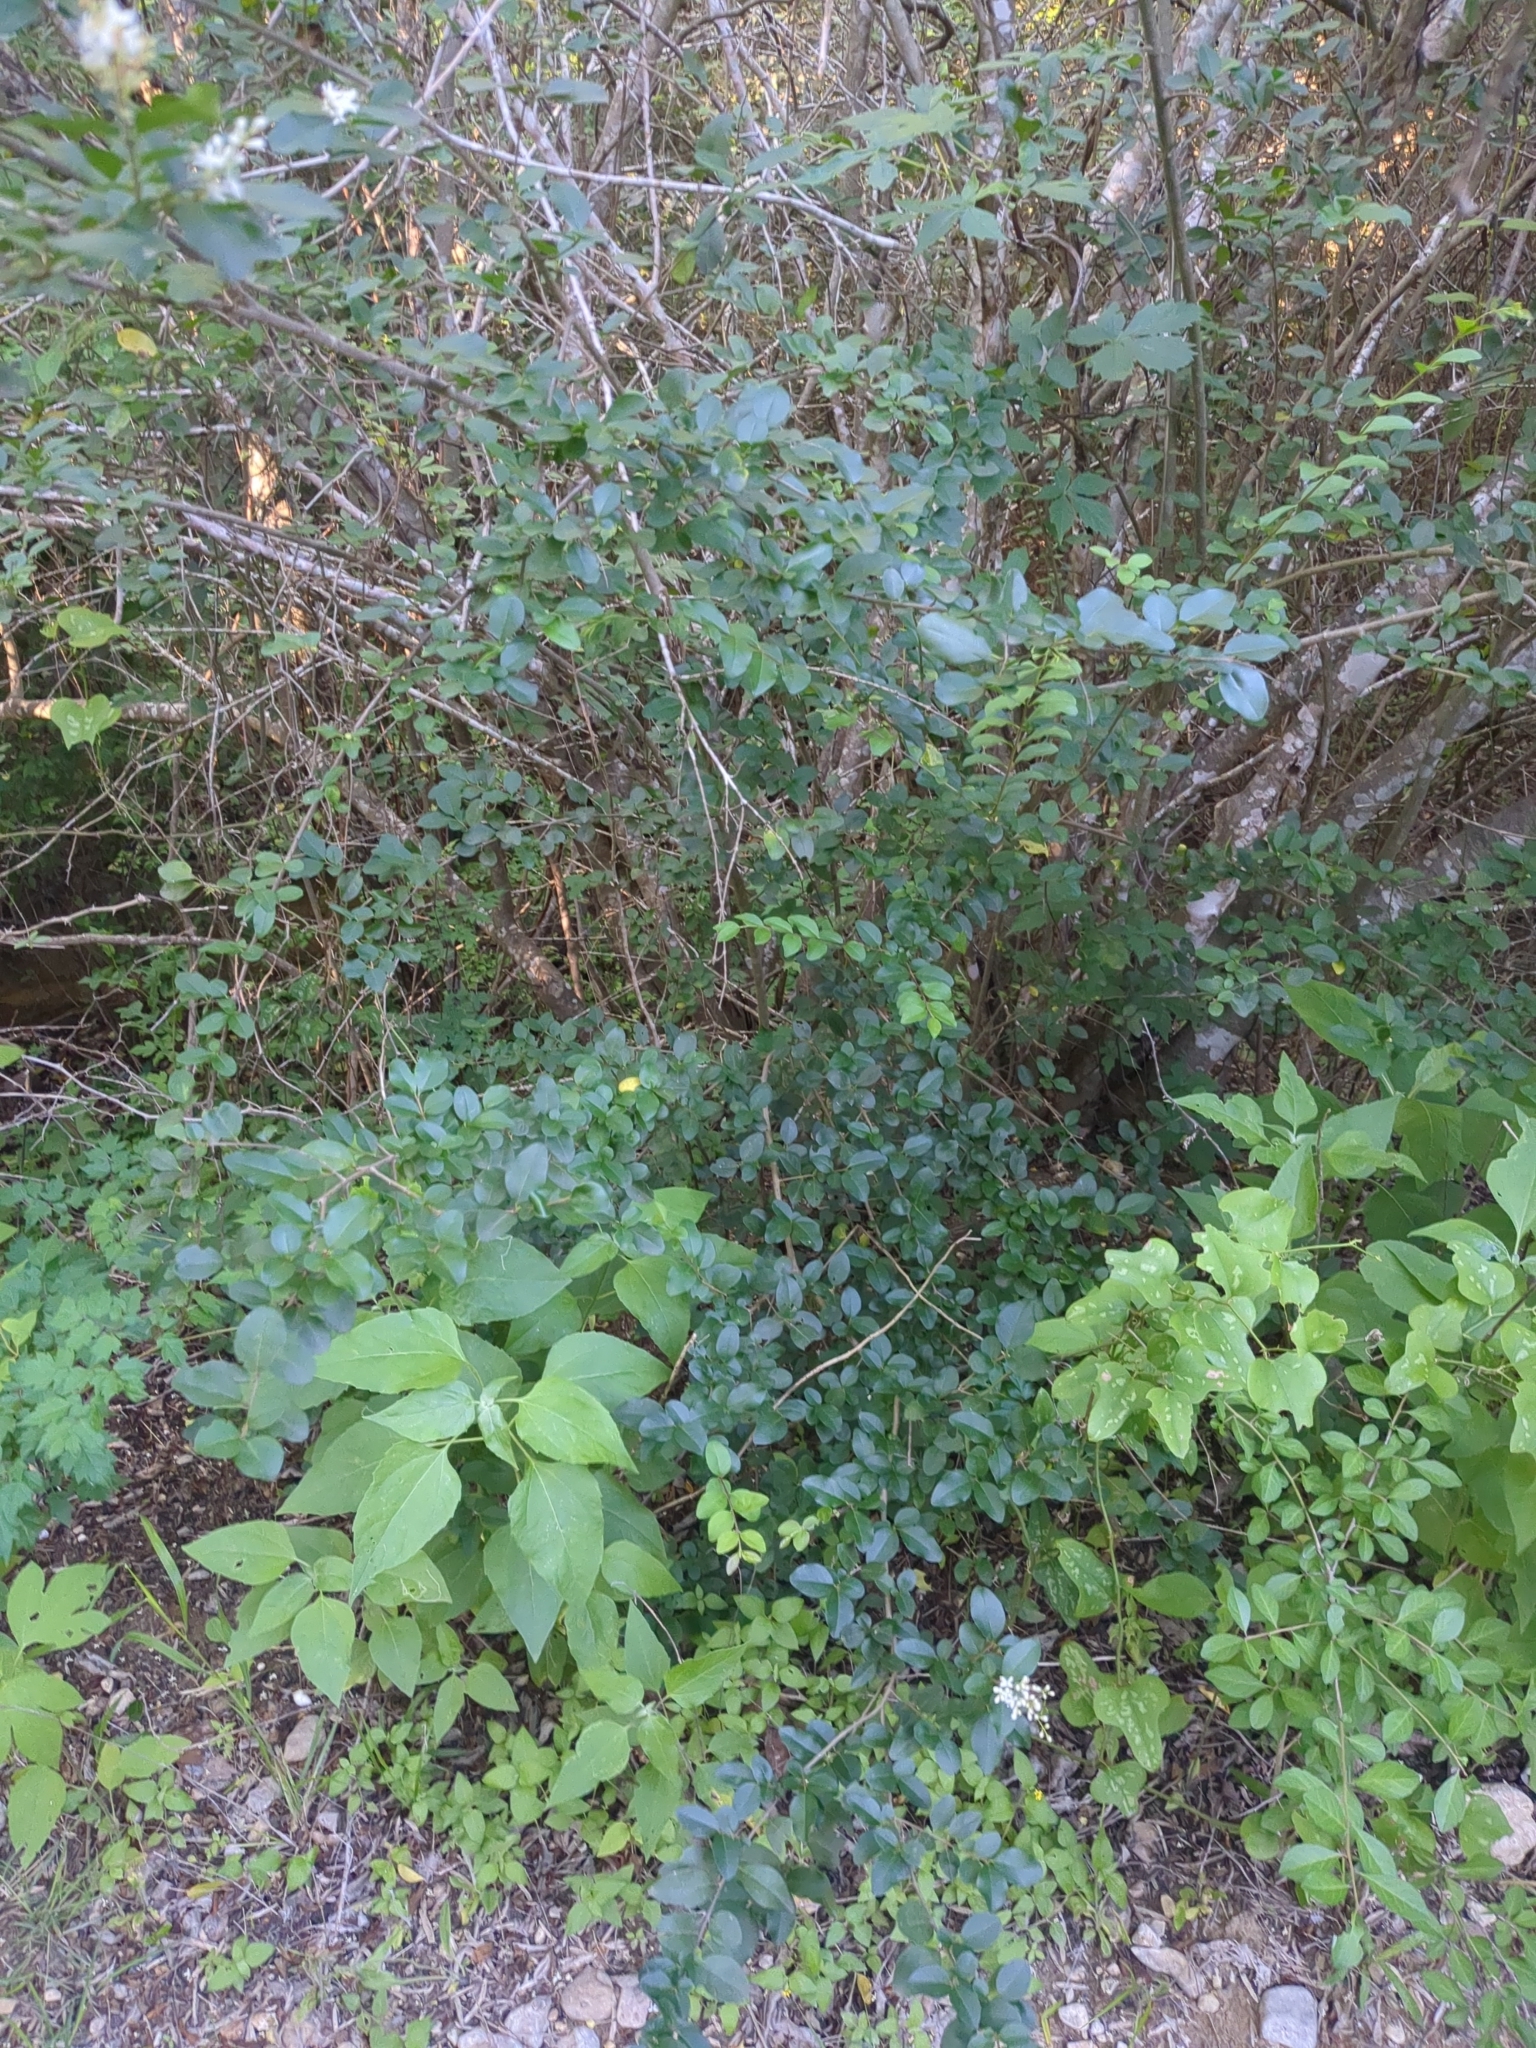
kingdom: Plantae
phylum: Tracheophyta
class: Magnoliopsida
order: Lamiales
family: Oleaceae
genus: Ligustrum
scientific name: Ligustrum sinense
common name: Chinese privet
